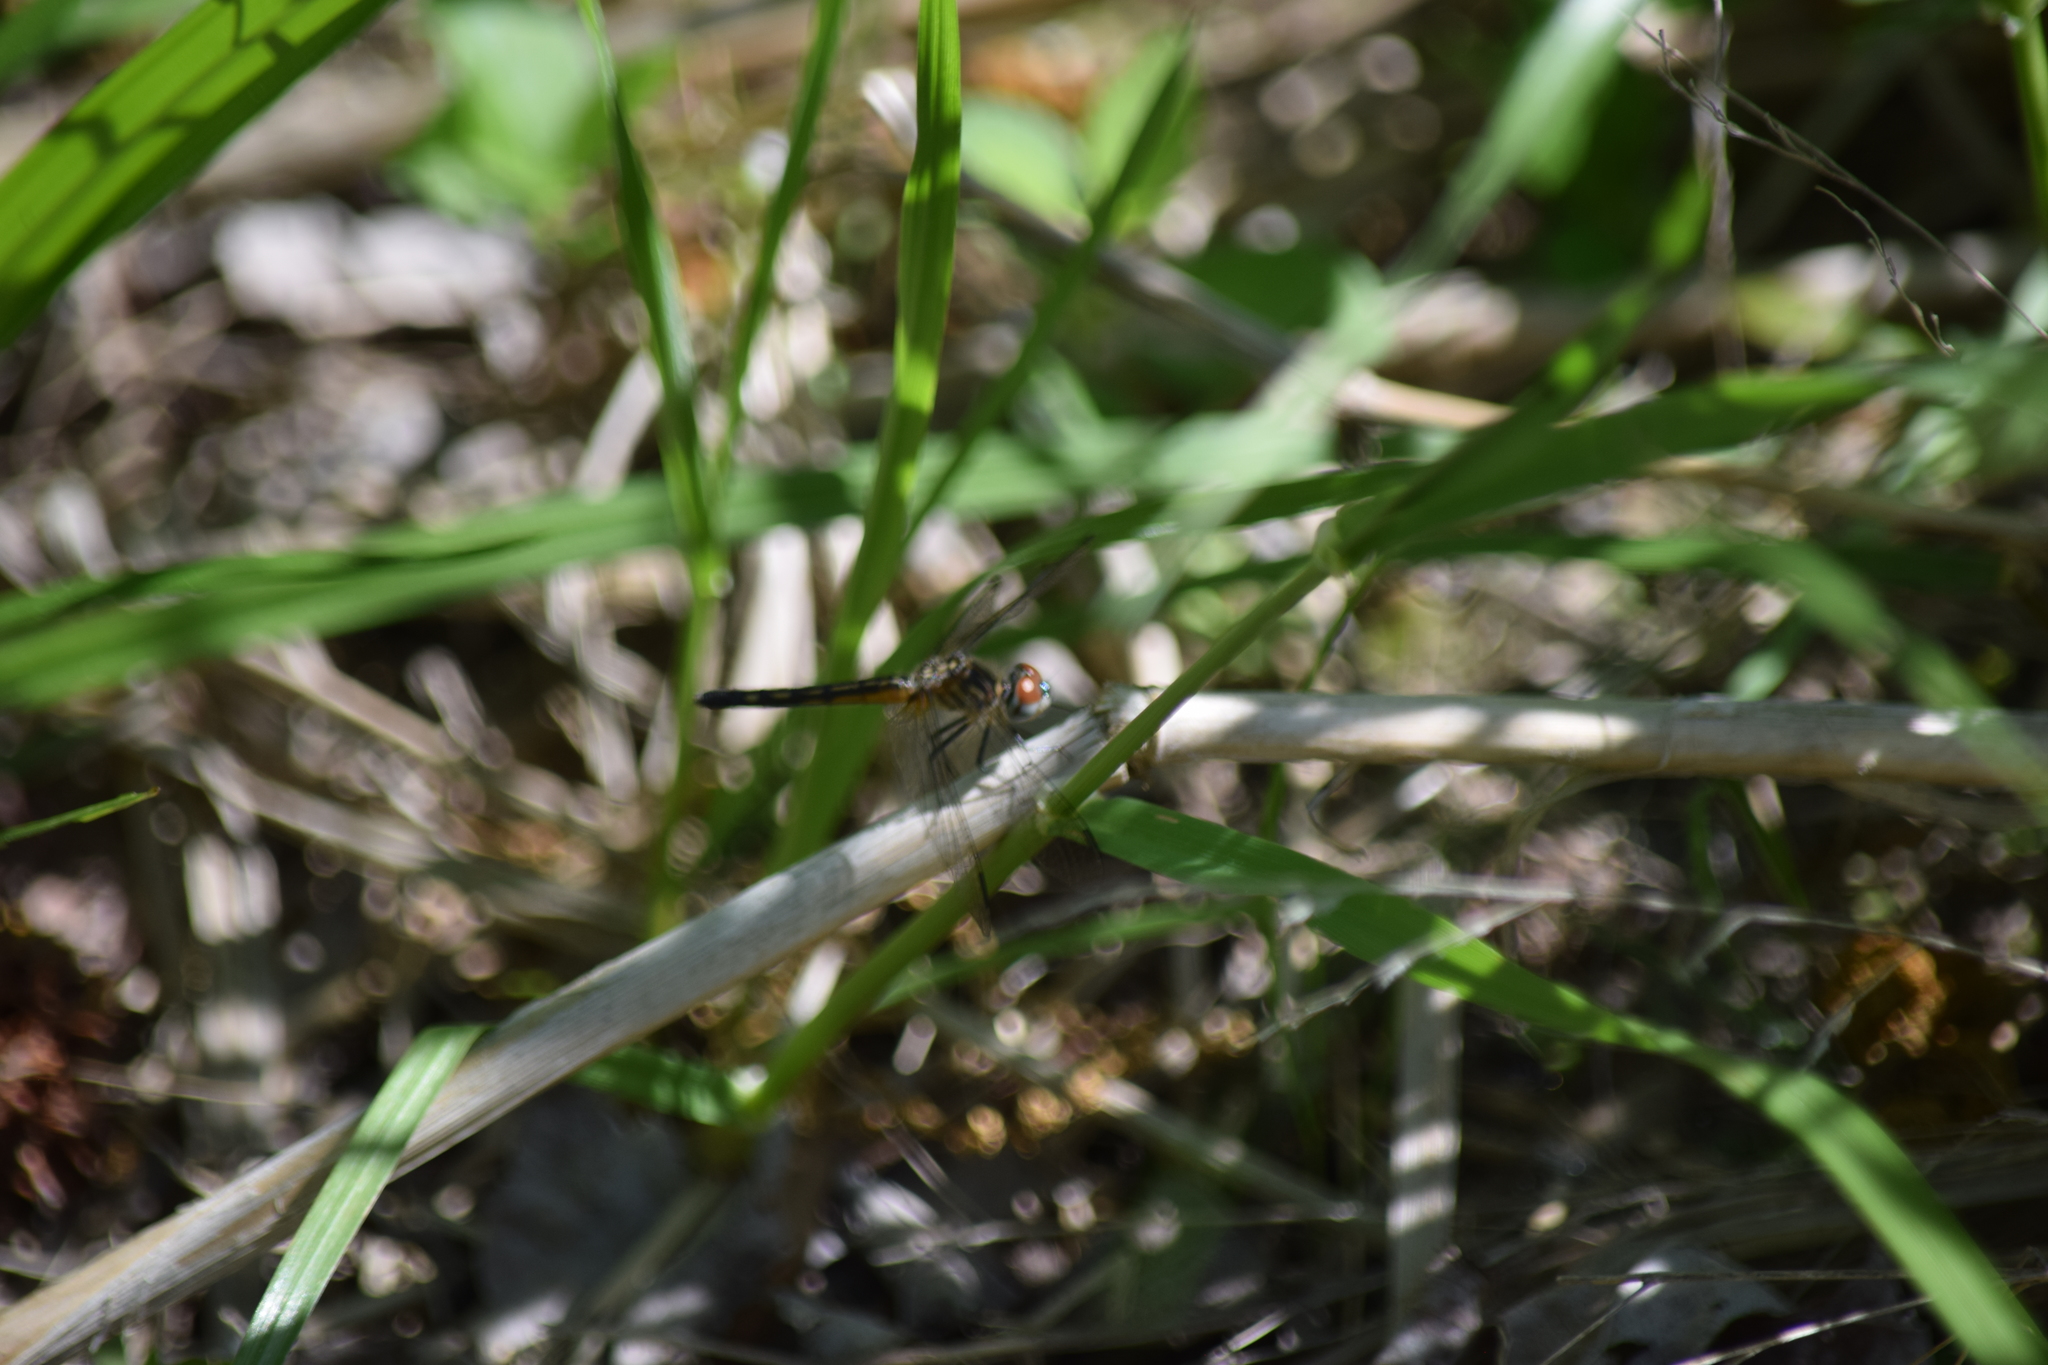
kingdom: Animalia
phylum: Arthropoda
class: Insecta
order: Odonata
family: Libellulidae
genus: Pachydiplax
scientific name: Pachydiplax longipennis
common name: Blue dasher
